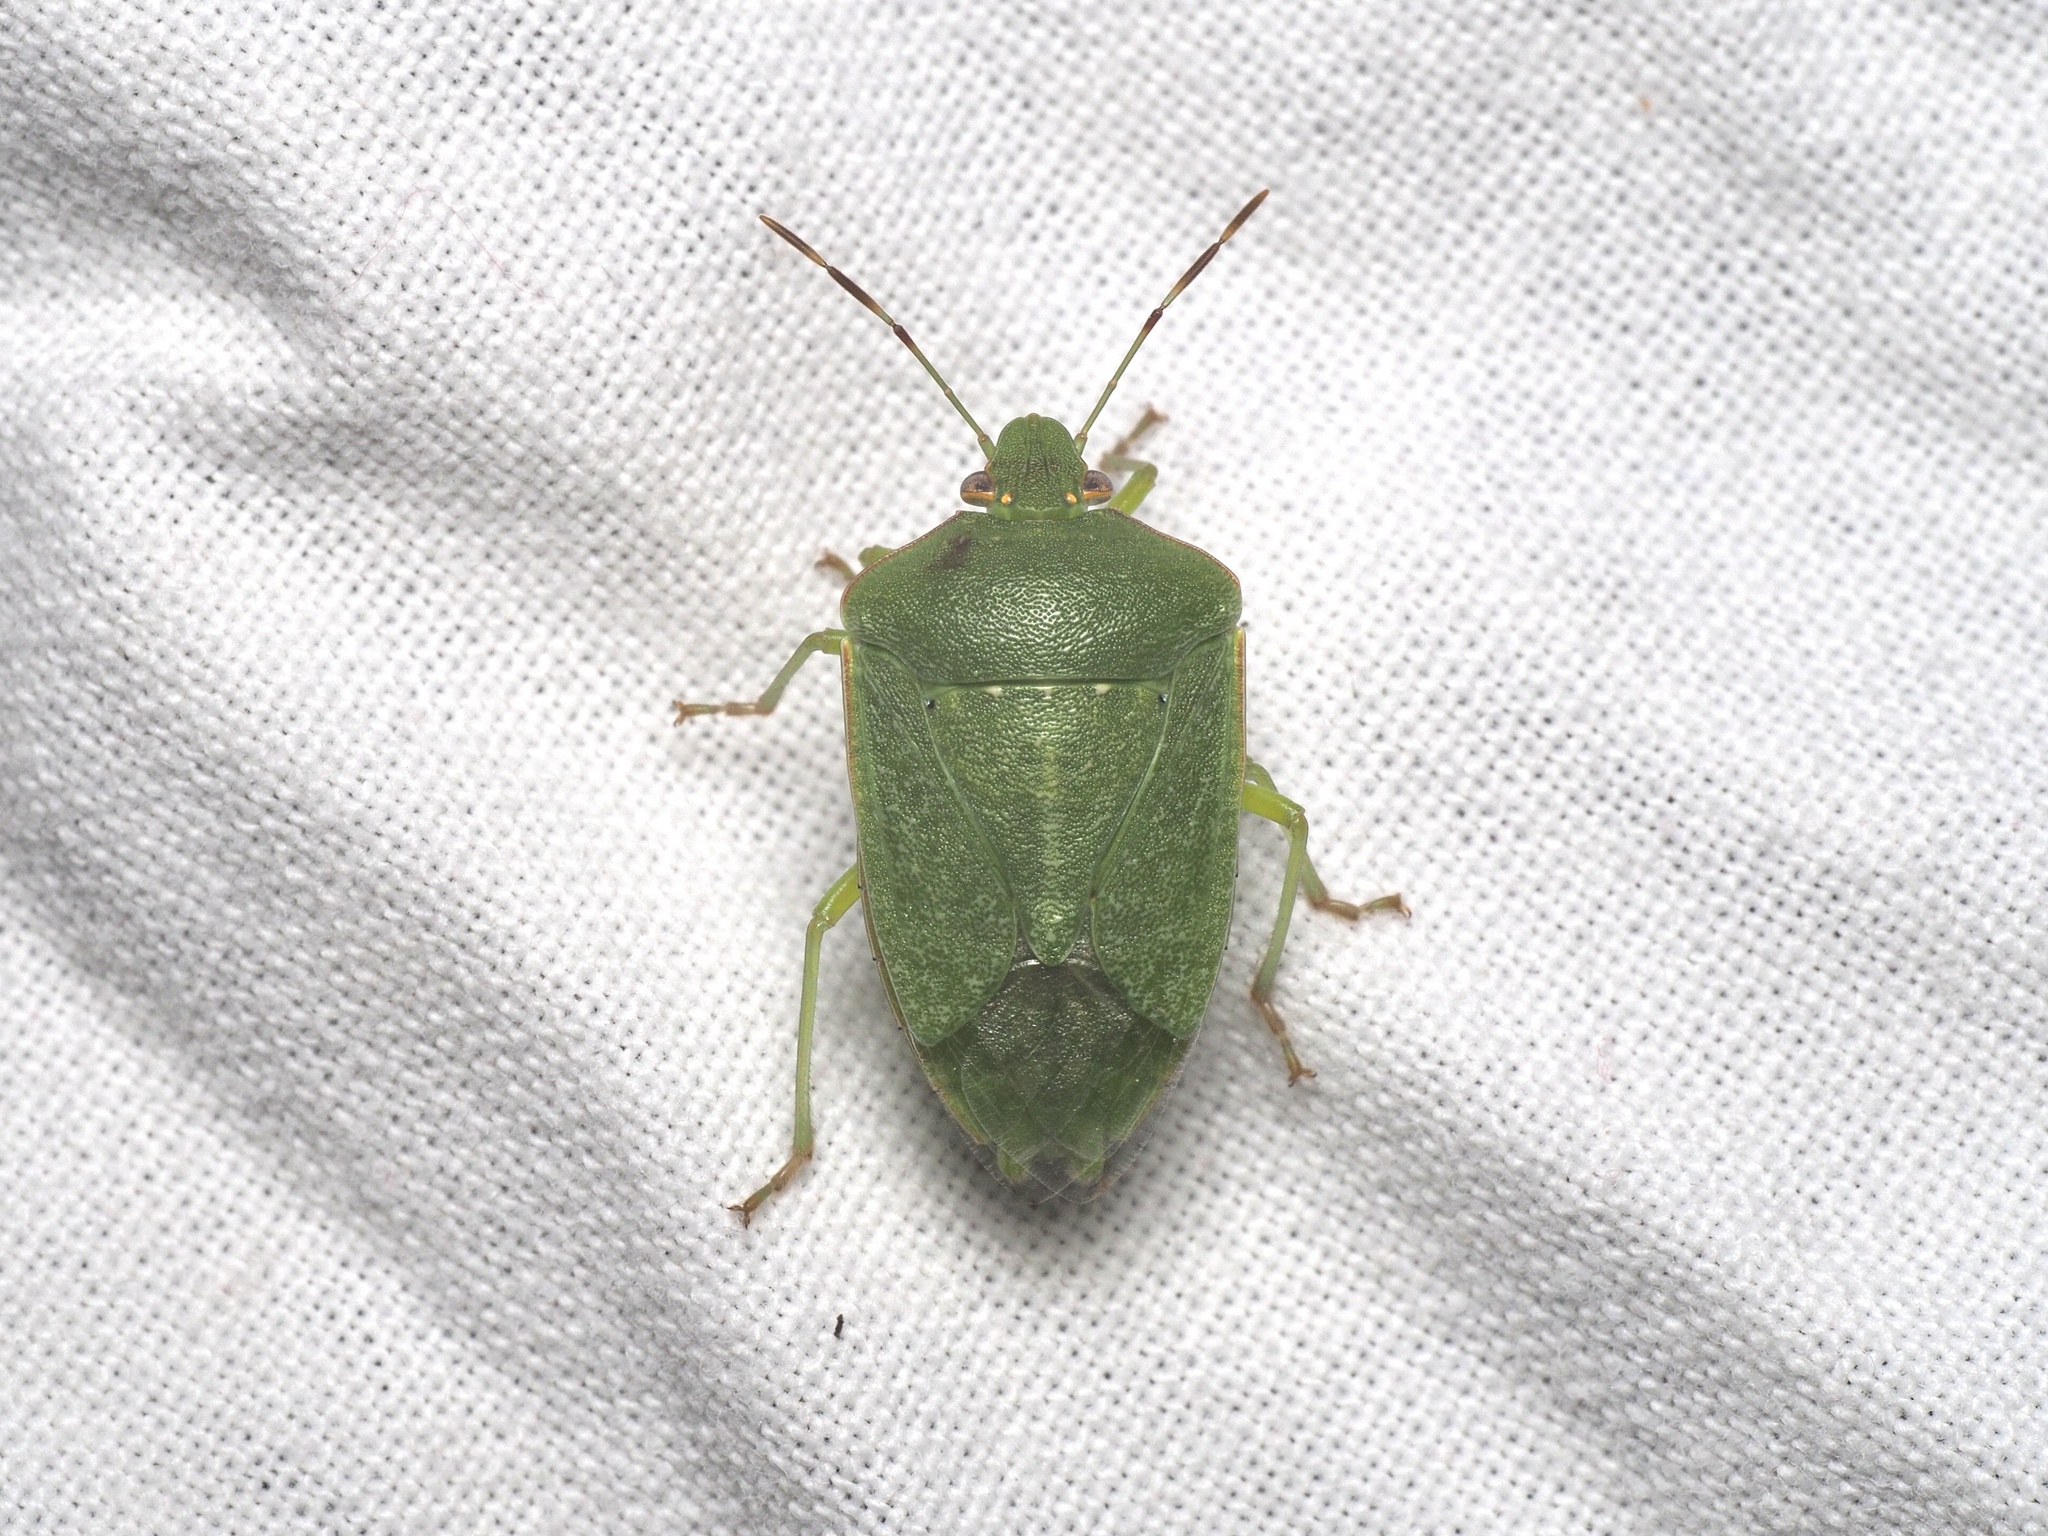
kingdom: Animalia
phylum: Arthropoda
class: Insecta
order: Hemiptera
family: Pentatomidae
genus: Nezara
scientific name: Nezara viridula
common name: Southern green stink bug
